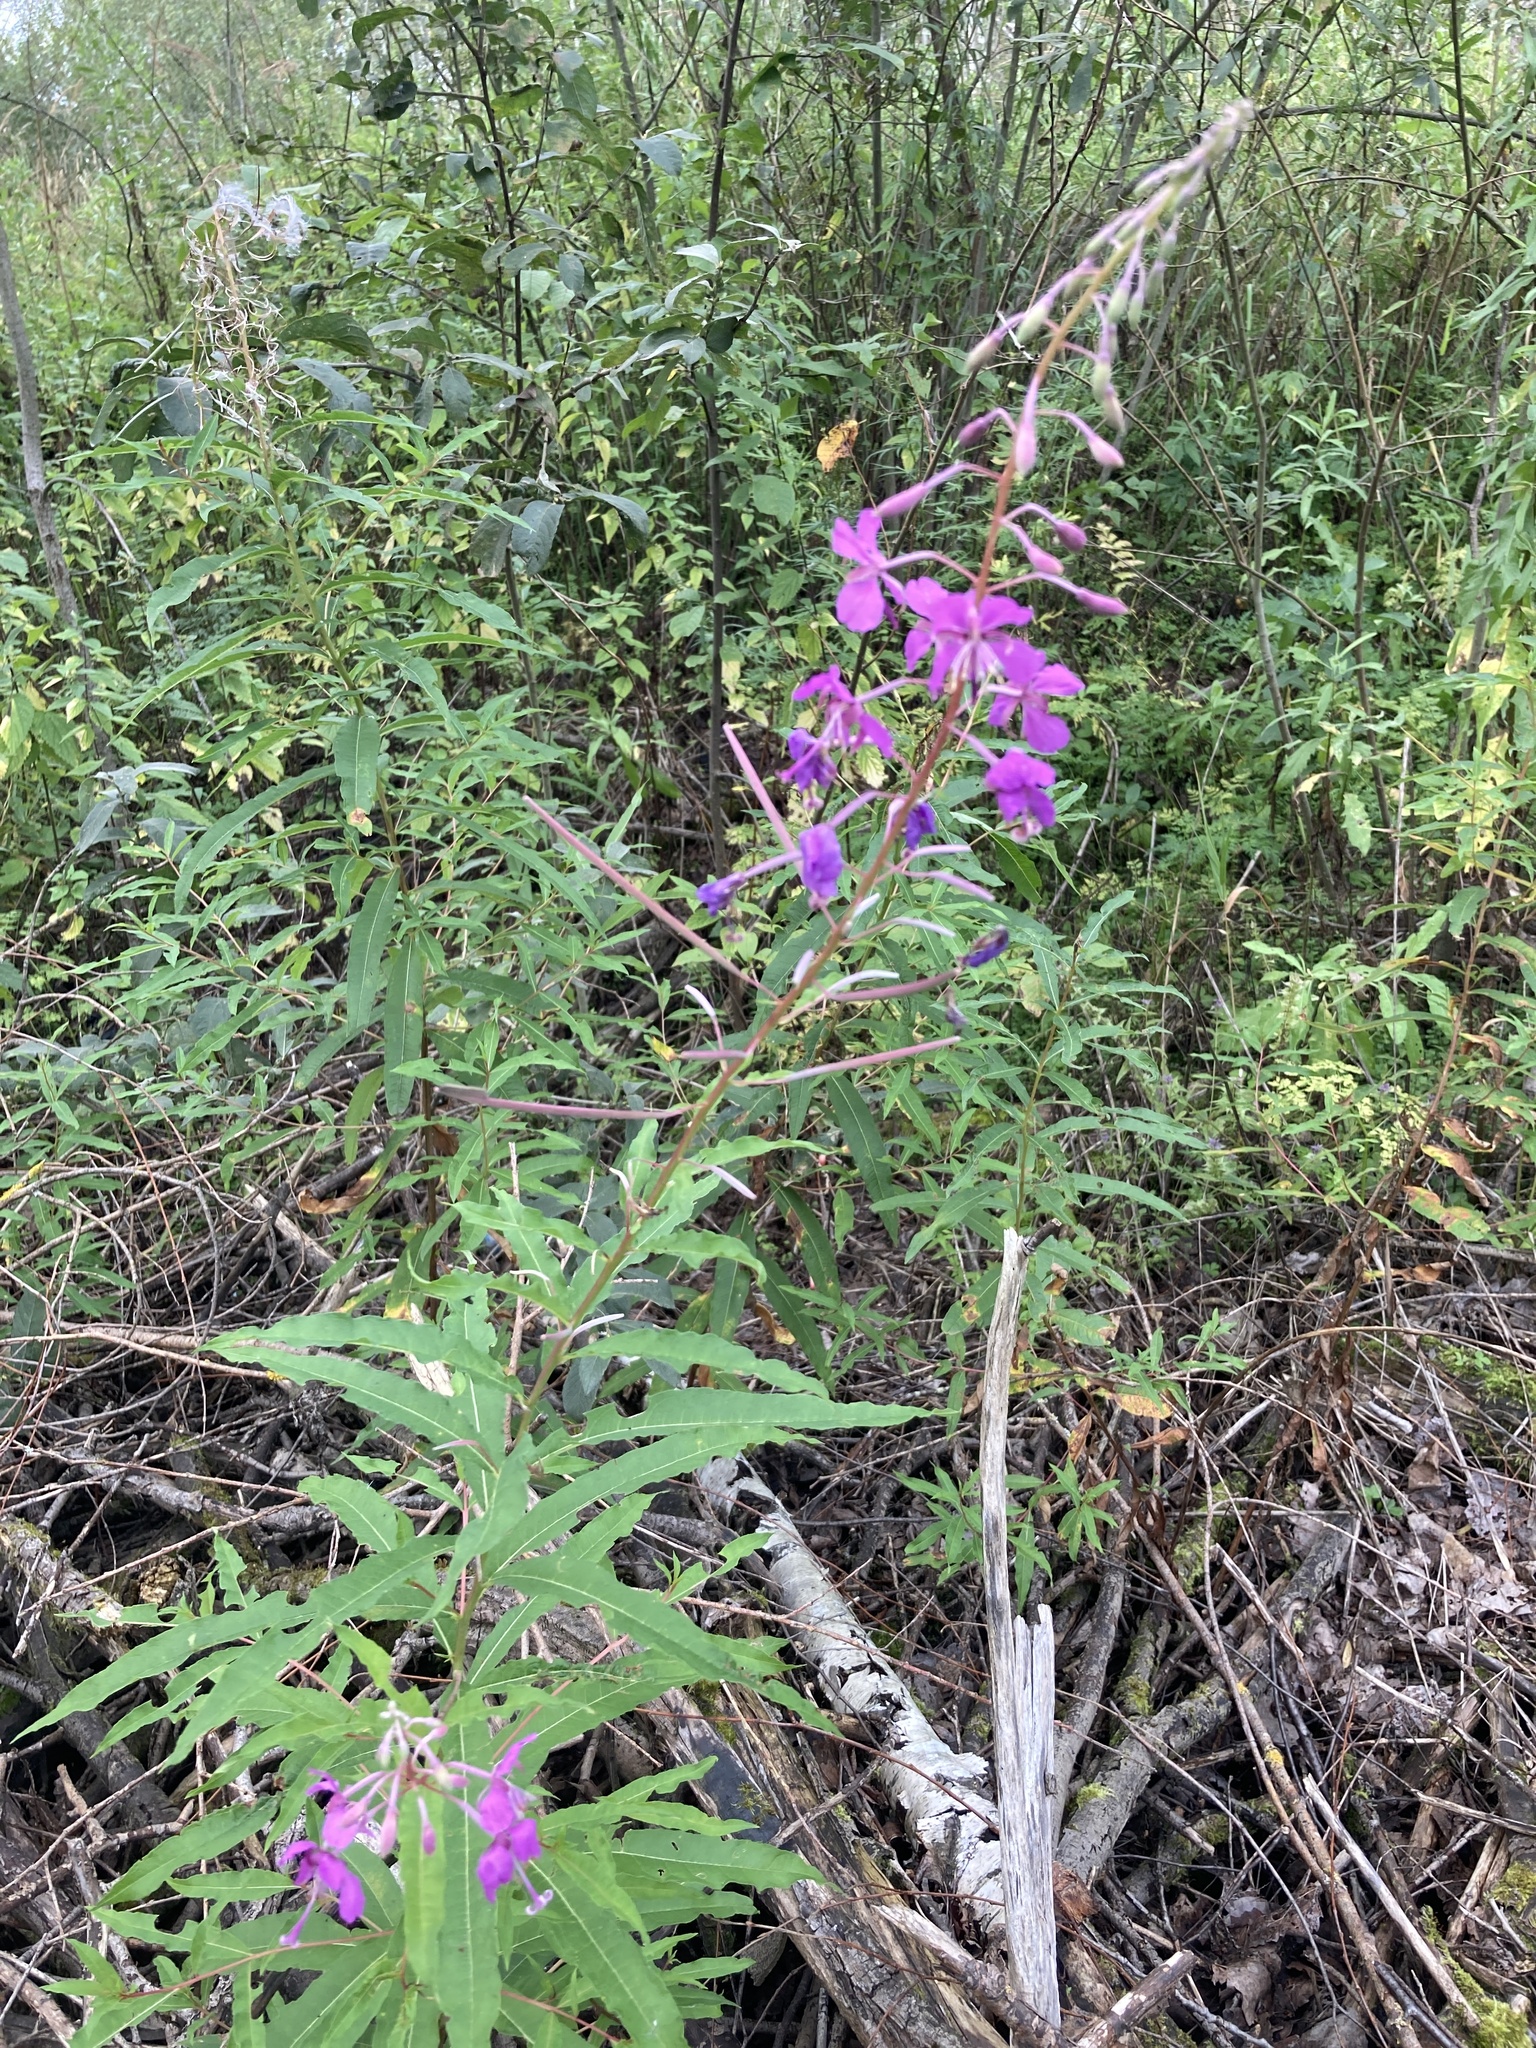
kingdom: Plantae
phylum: Tracheophyta
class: Magnoliopsida
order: Myrtales
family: Onagraceae
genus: Chamaenerion
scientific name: Chamaenerion angustifolium
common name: Fireweed
